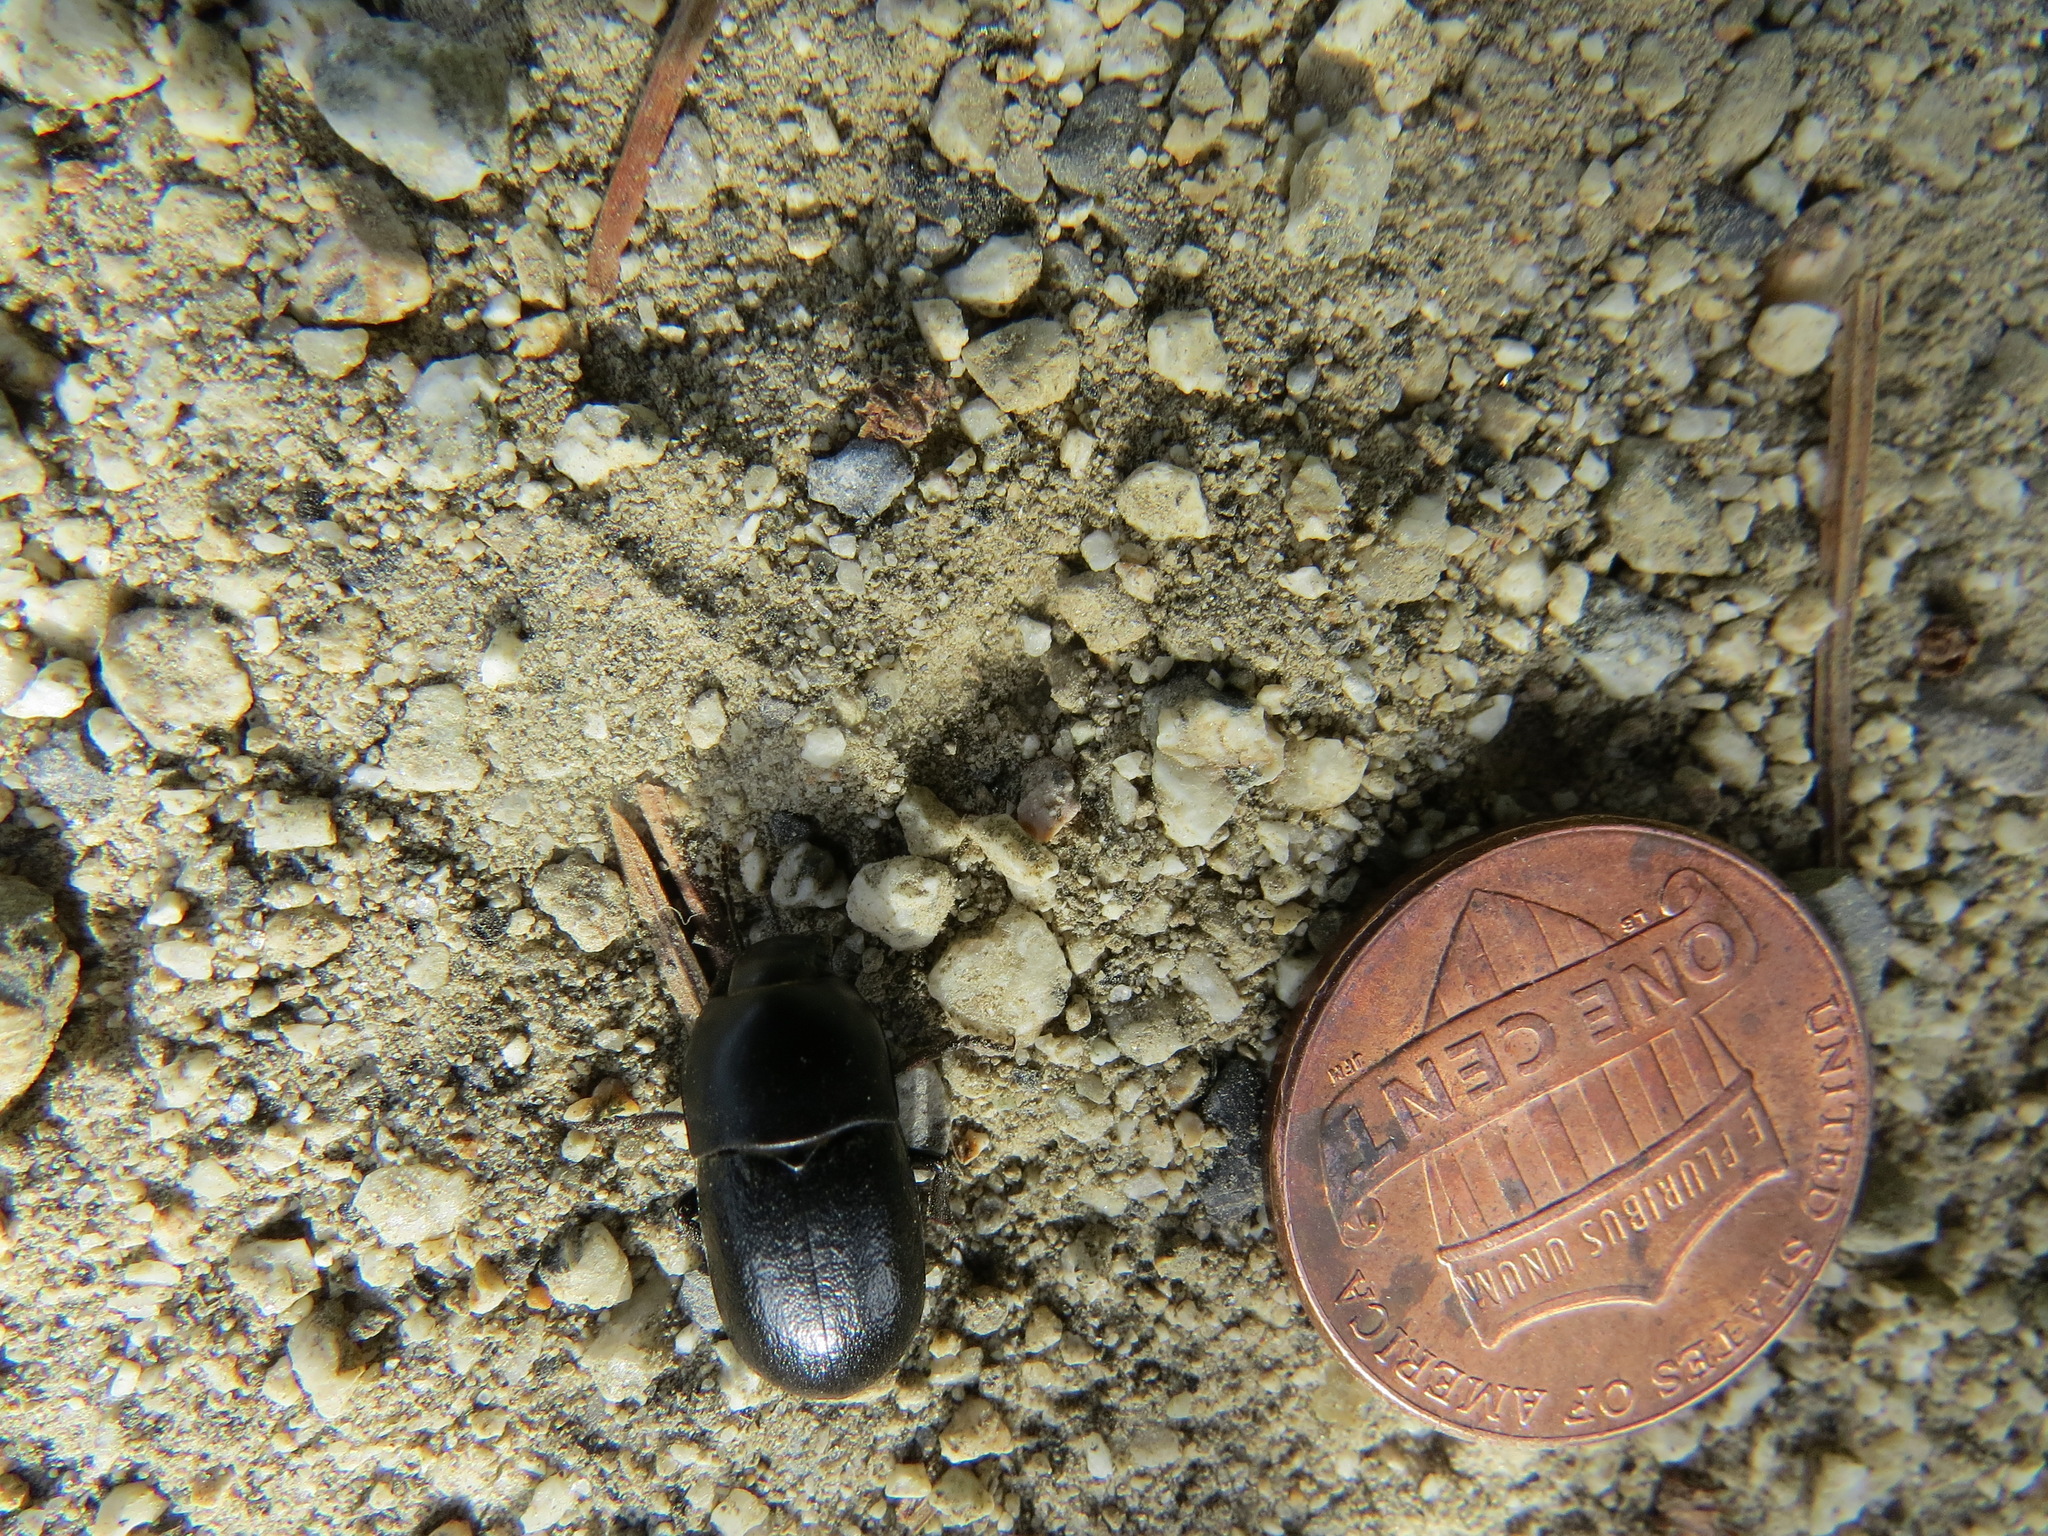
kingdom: Animalia
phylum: Arthropoda
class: Insecta
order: Coleoptera
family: Tenebrionidae
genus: Coniontis
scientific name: Coniontis
